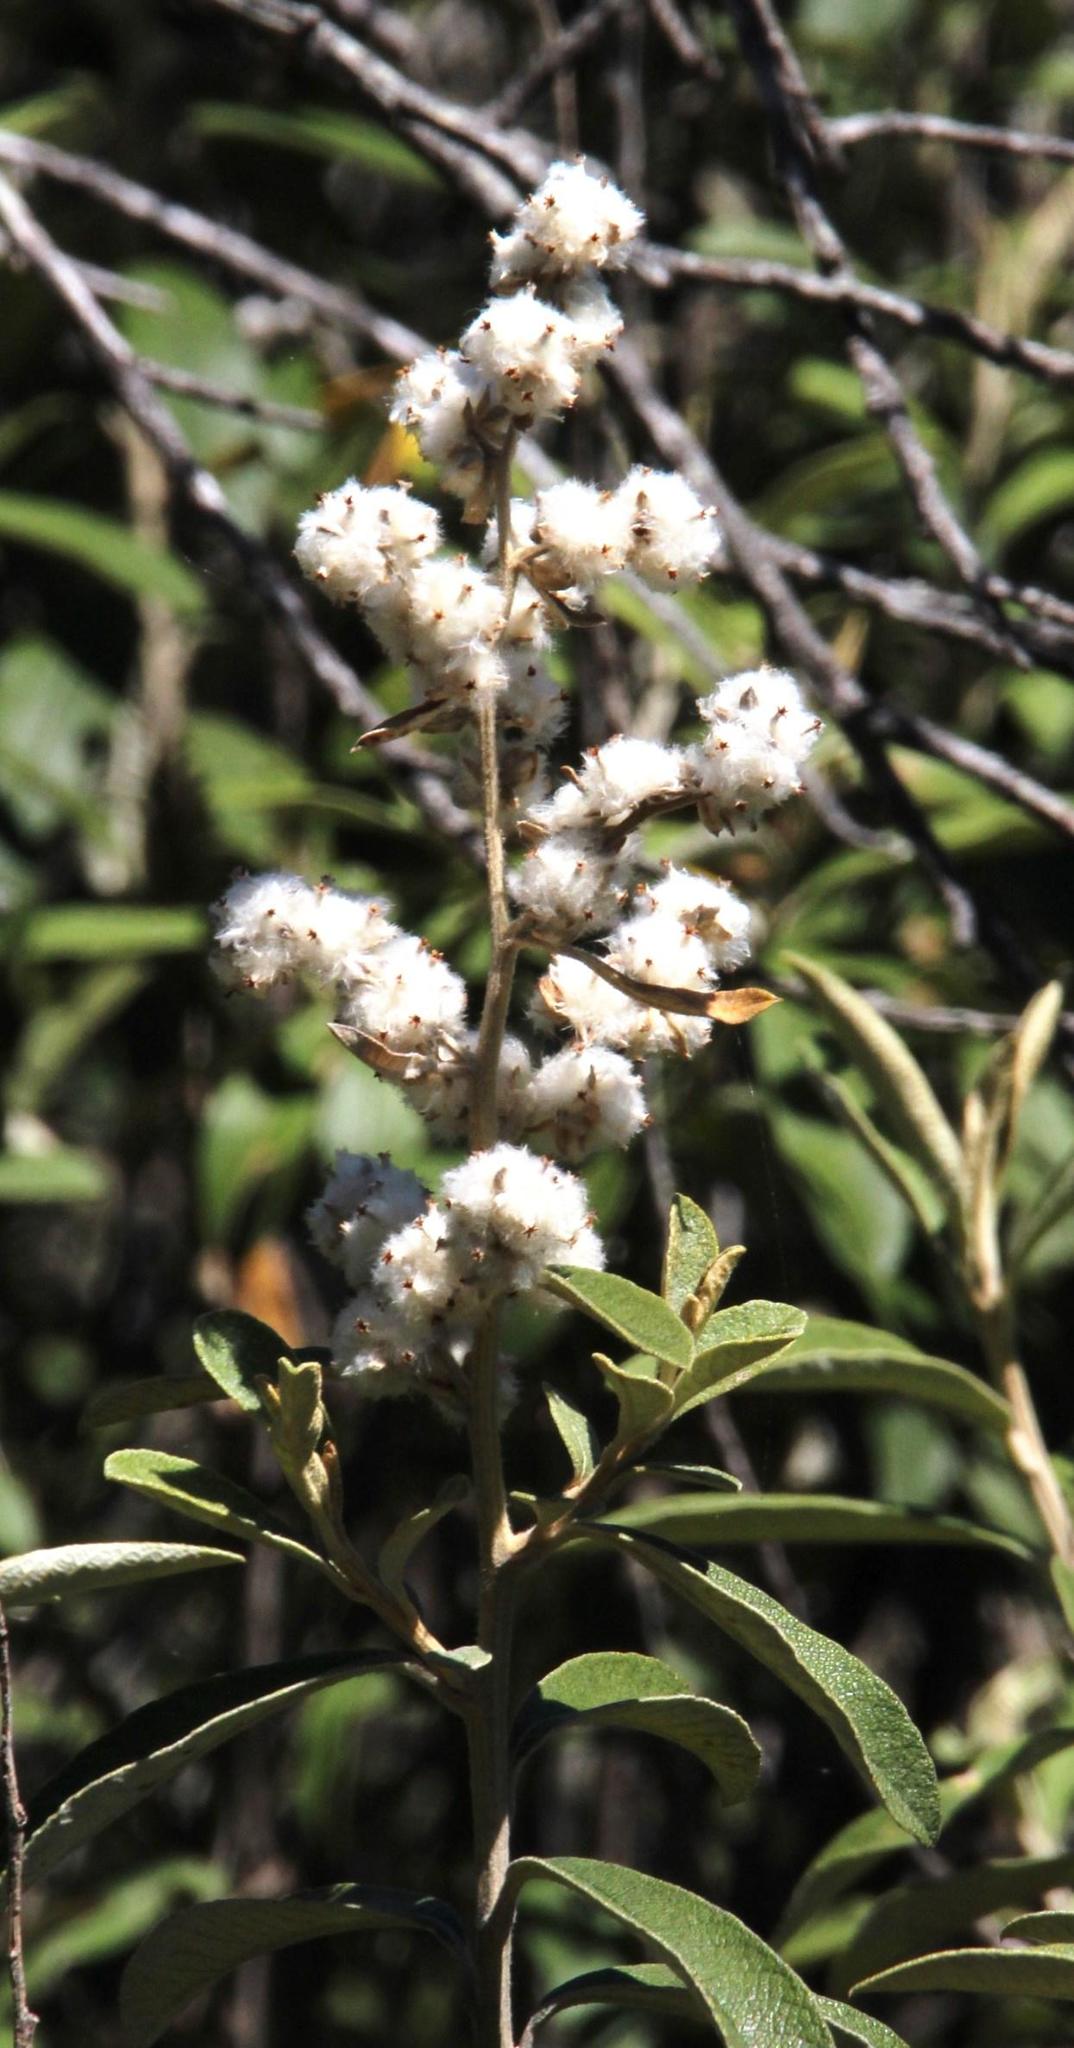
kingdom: Plantae
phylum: Tracheophyta
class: Magnoliopsida
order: Asterales
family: Asteraceae
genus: Tarchonanthus
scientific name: Tarchonanthus littoralis
